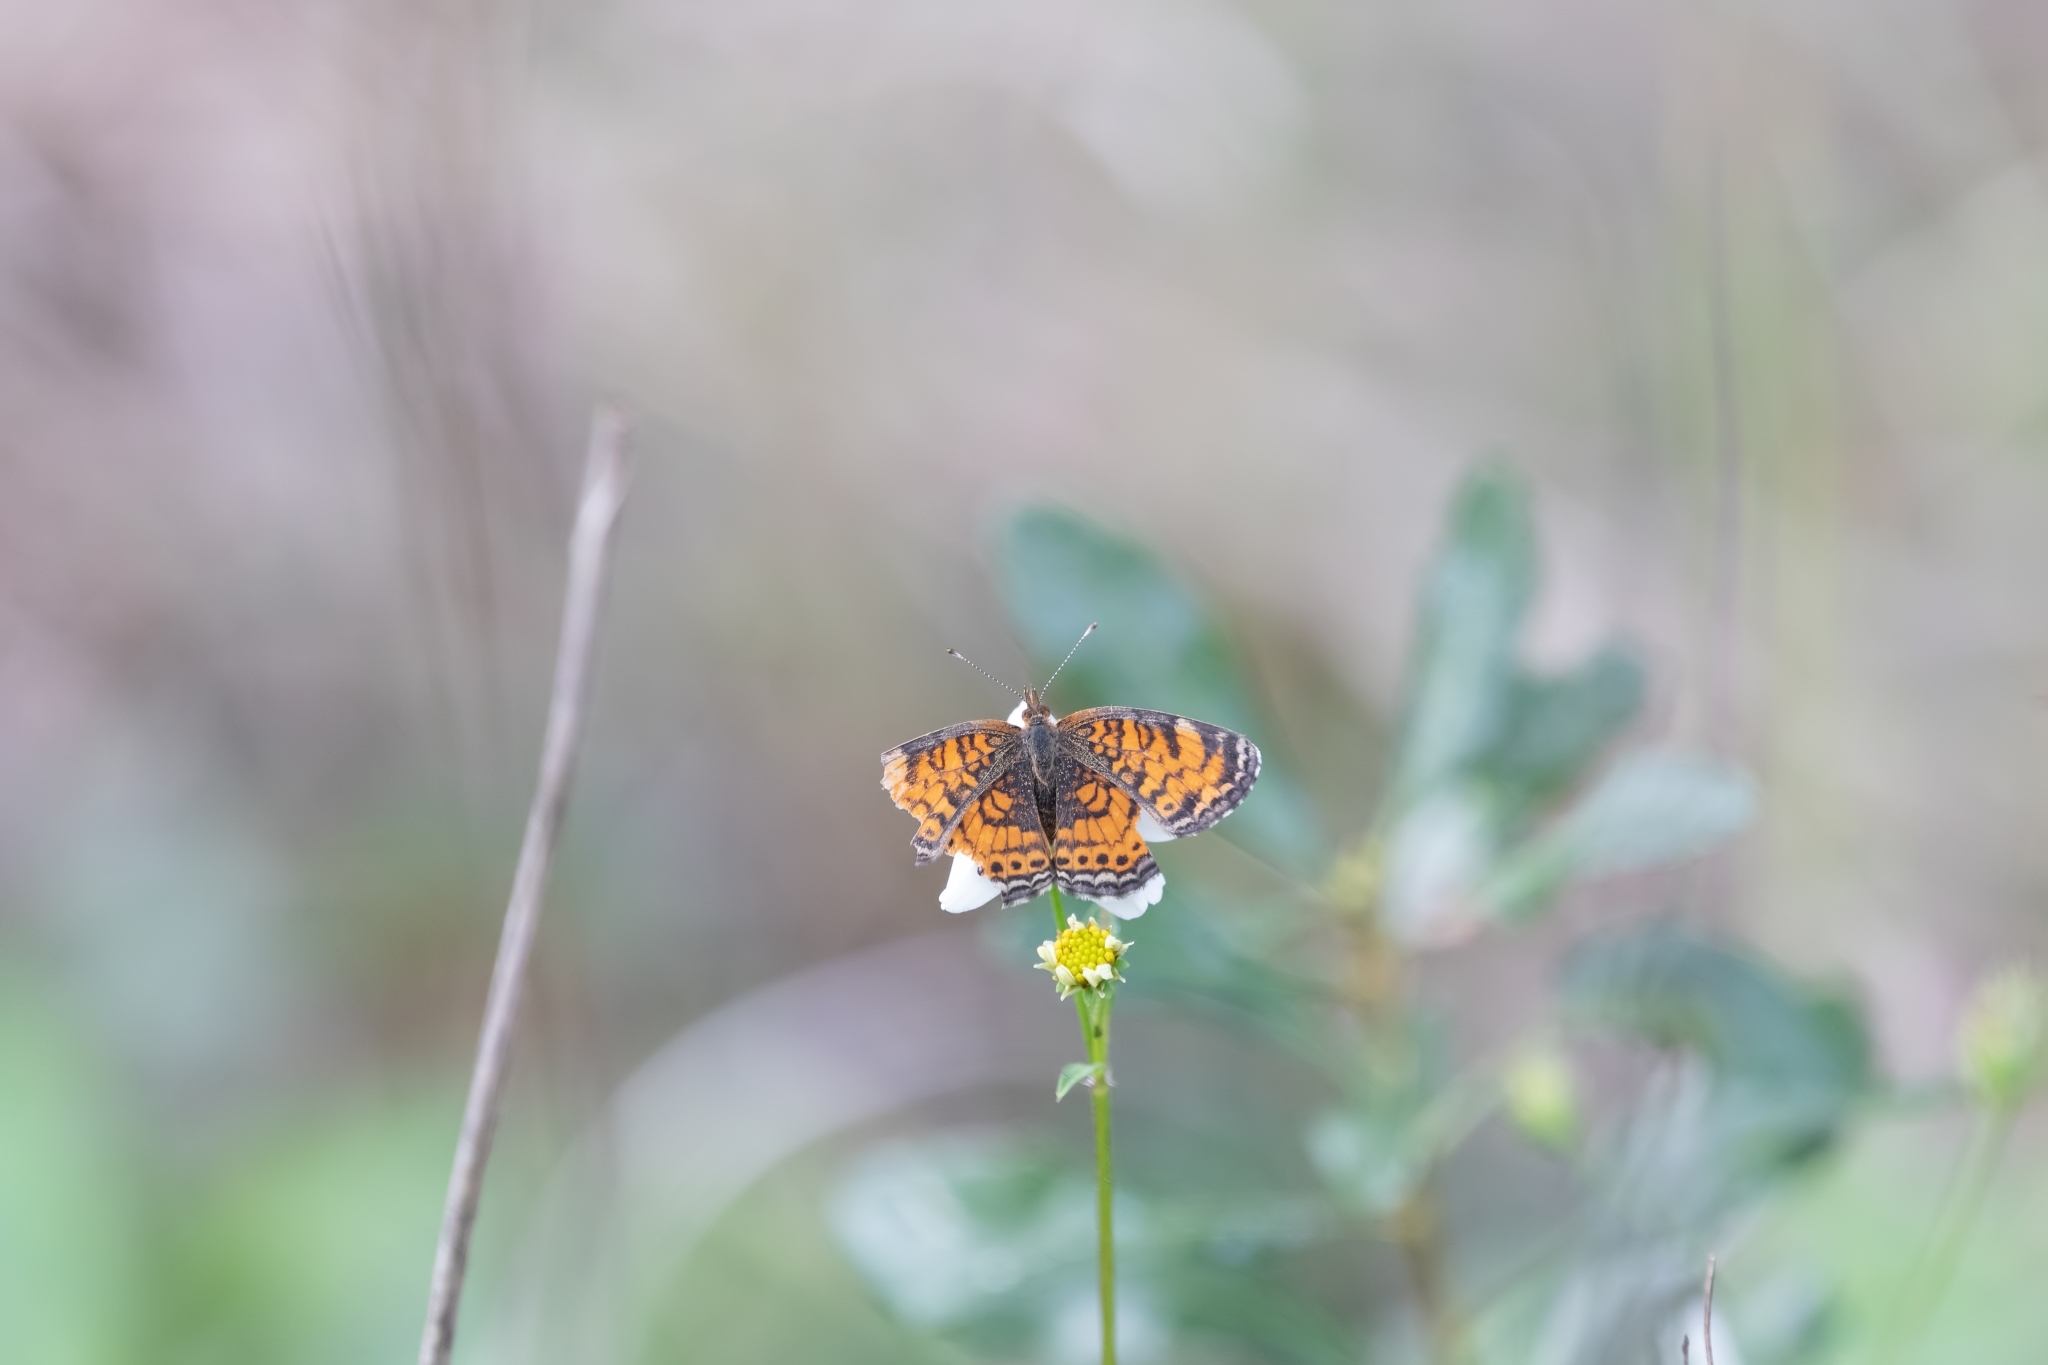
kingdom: Animalia
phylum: Arthropoda
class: Insecta
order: Lepidoptera
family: Nymphalidae
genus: Phyciodes
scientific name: Phyciodes tharos
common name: Pearl crescent
